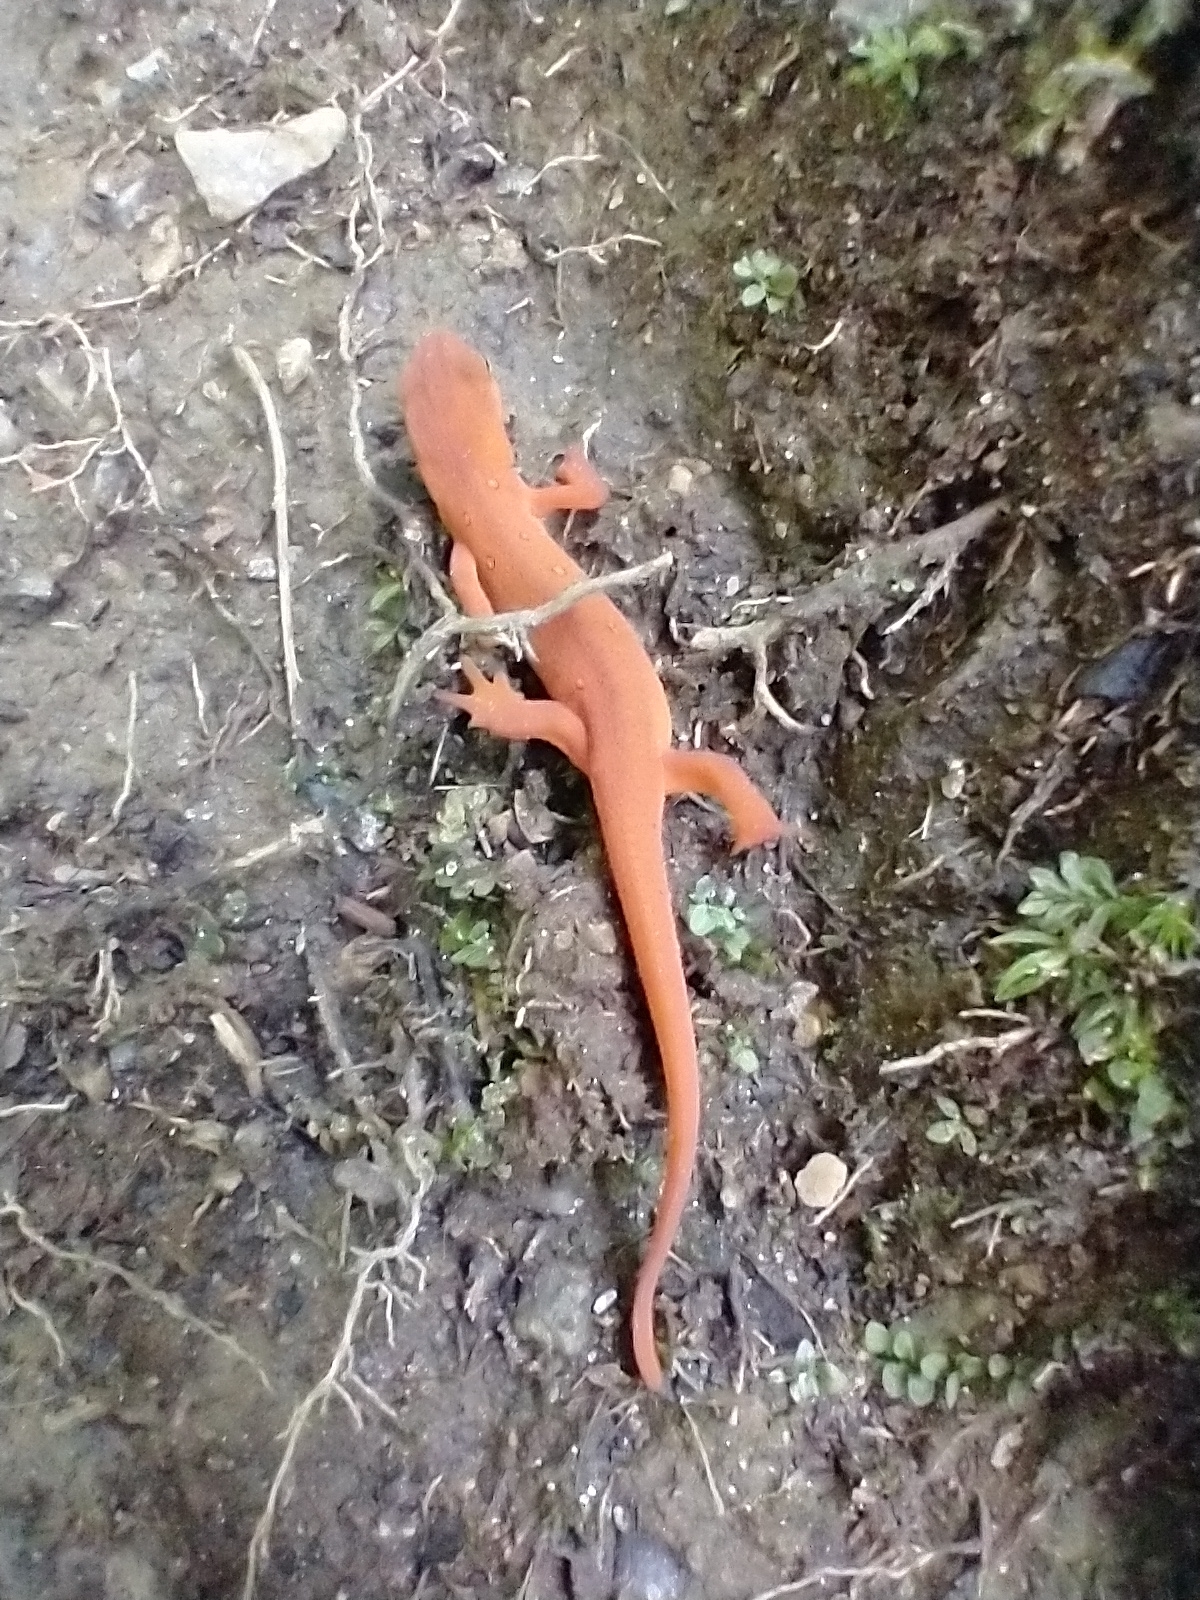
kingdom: Animalia
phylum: Chordata
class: Amphibia
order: Caudata
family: Salamandridae
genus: Notophthalmus
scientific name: Notophthalmus viridescens
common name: Eastern newt
